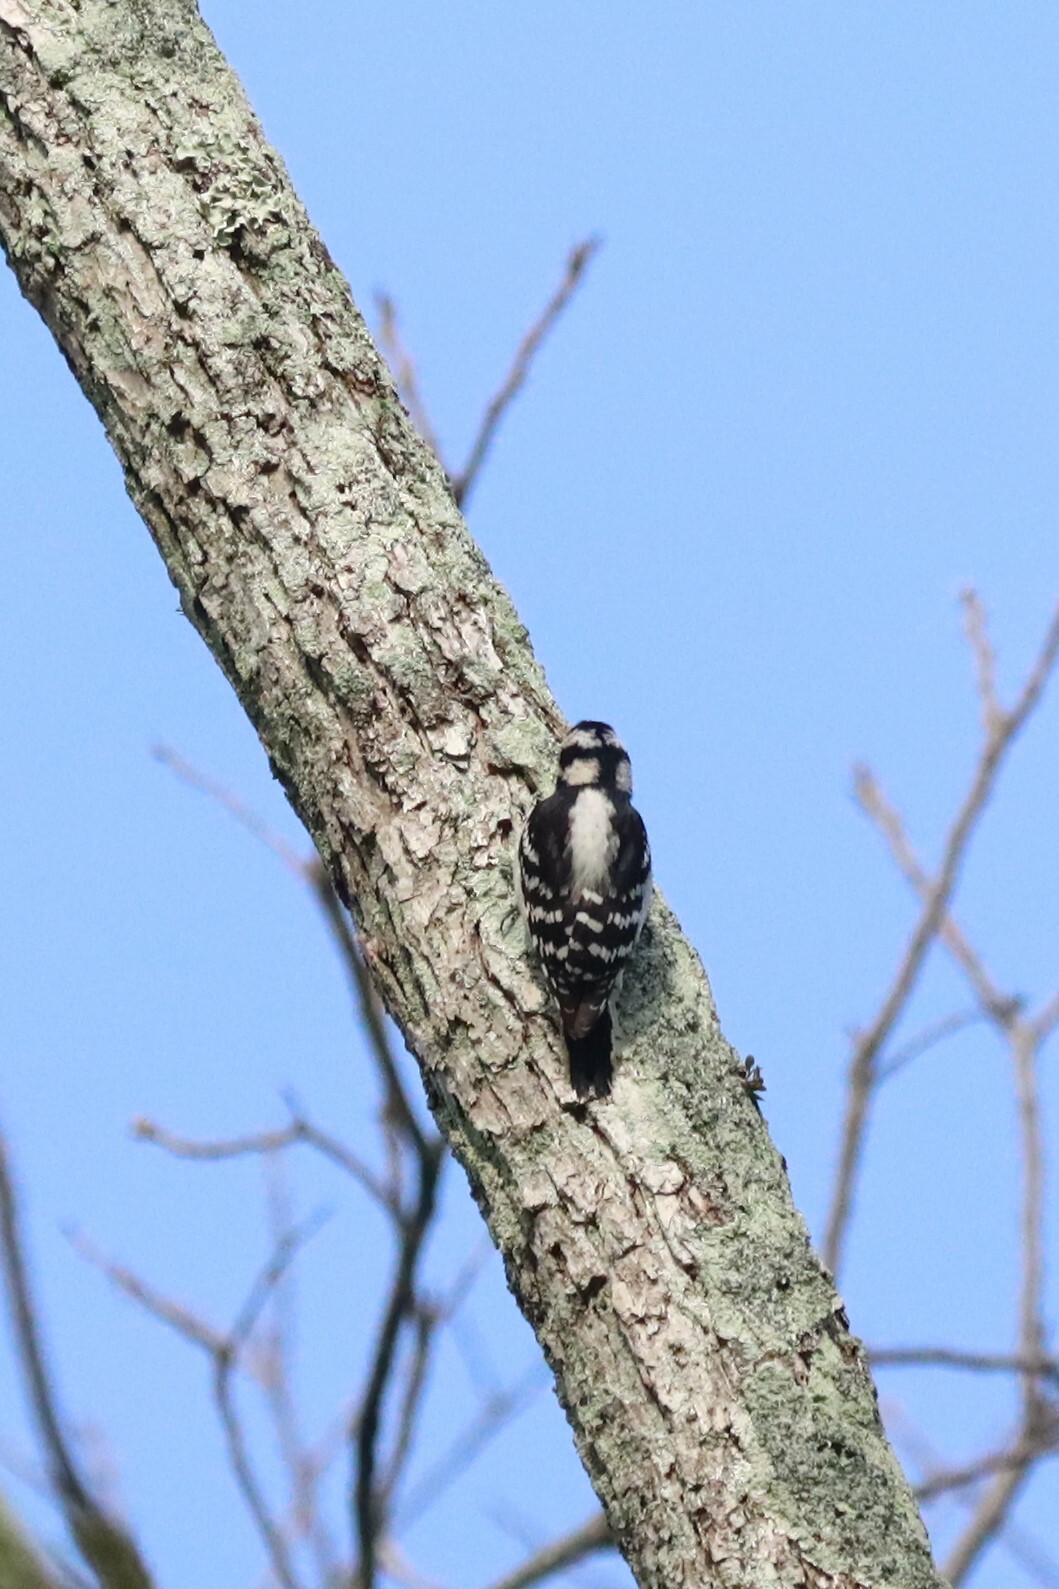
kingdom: Animalia
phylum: Chordata
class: Aves
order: Piciformes
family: Picidae
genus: Dryobates
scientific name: Dryobates pubescens
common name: Downy woodpecker
